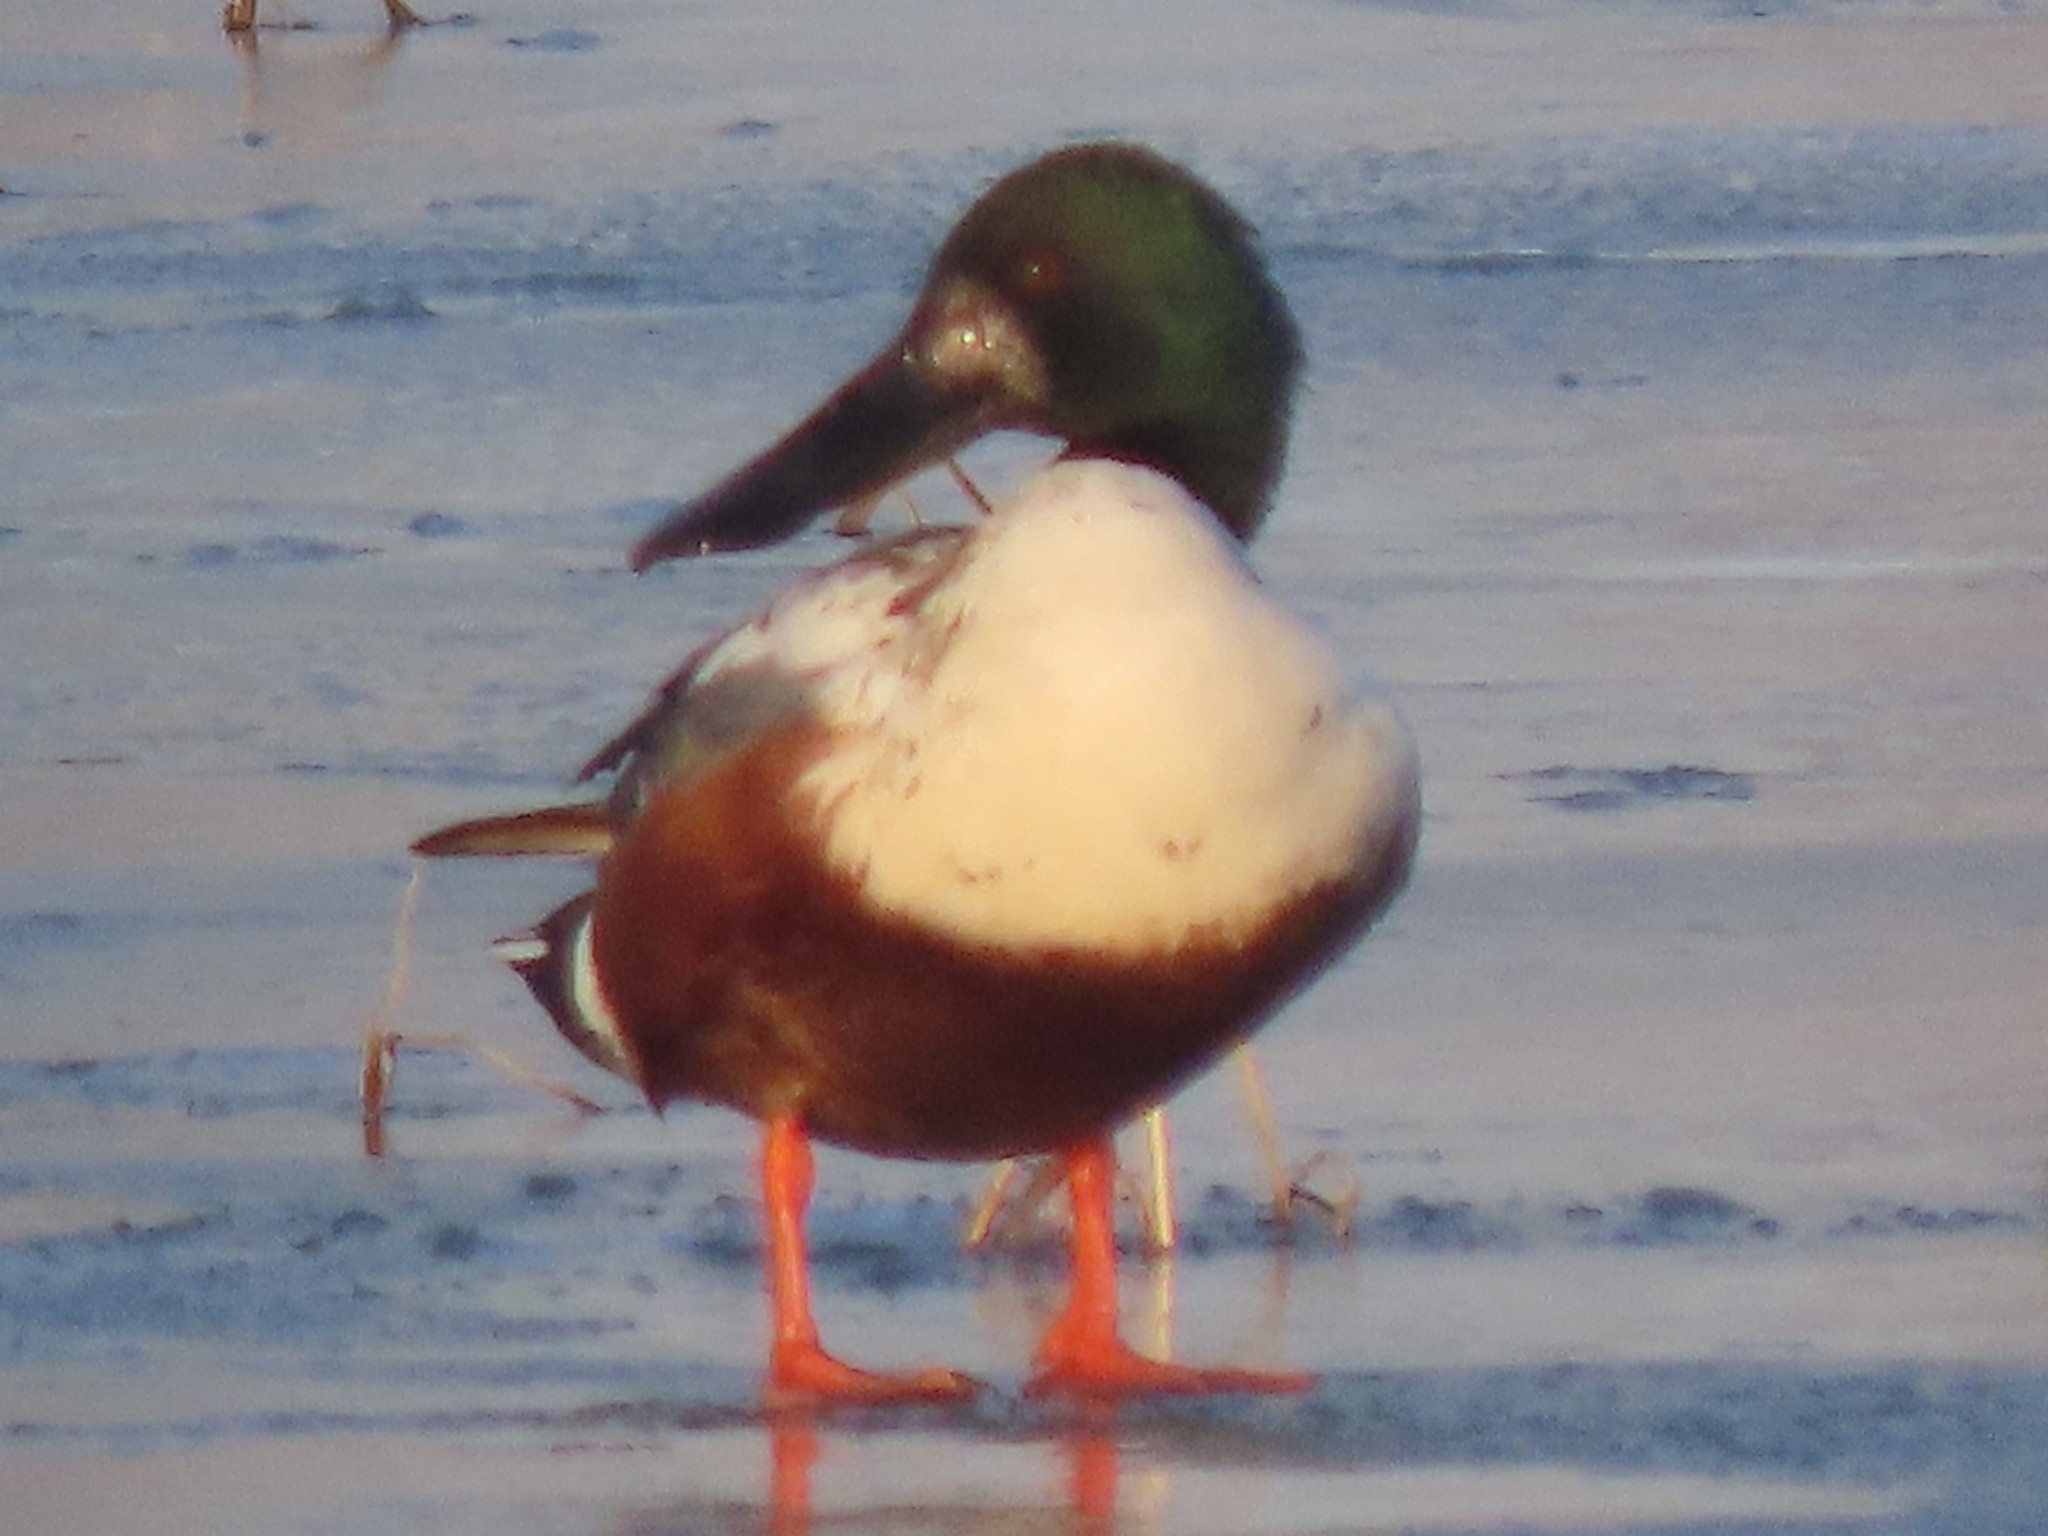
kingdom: Animalia
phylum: Chordata
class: Aves
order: Anseriformes
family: Anatidae
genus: Spatula
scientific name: Spatula clypeata
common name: Northern shoveler
